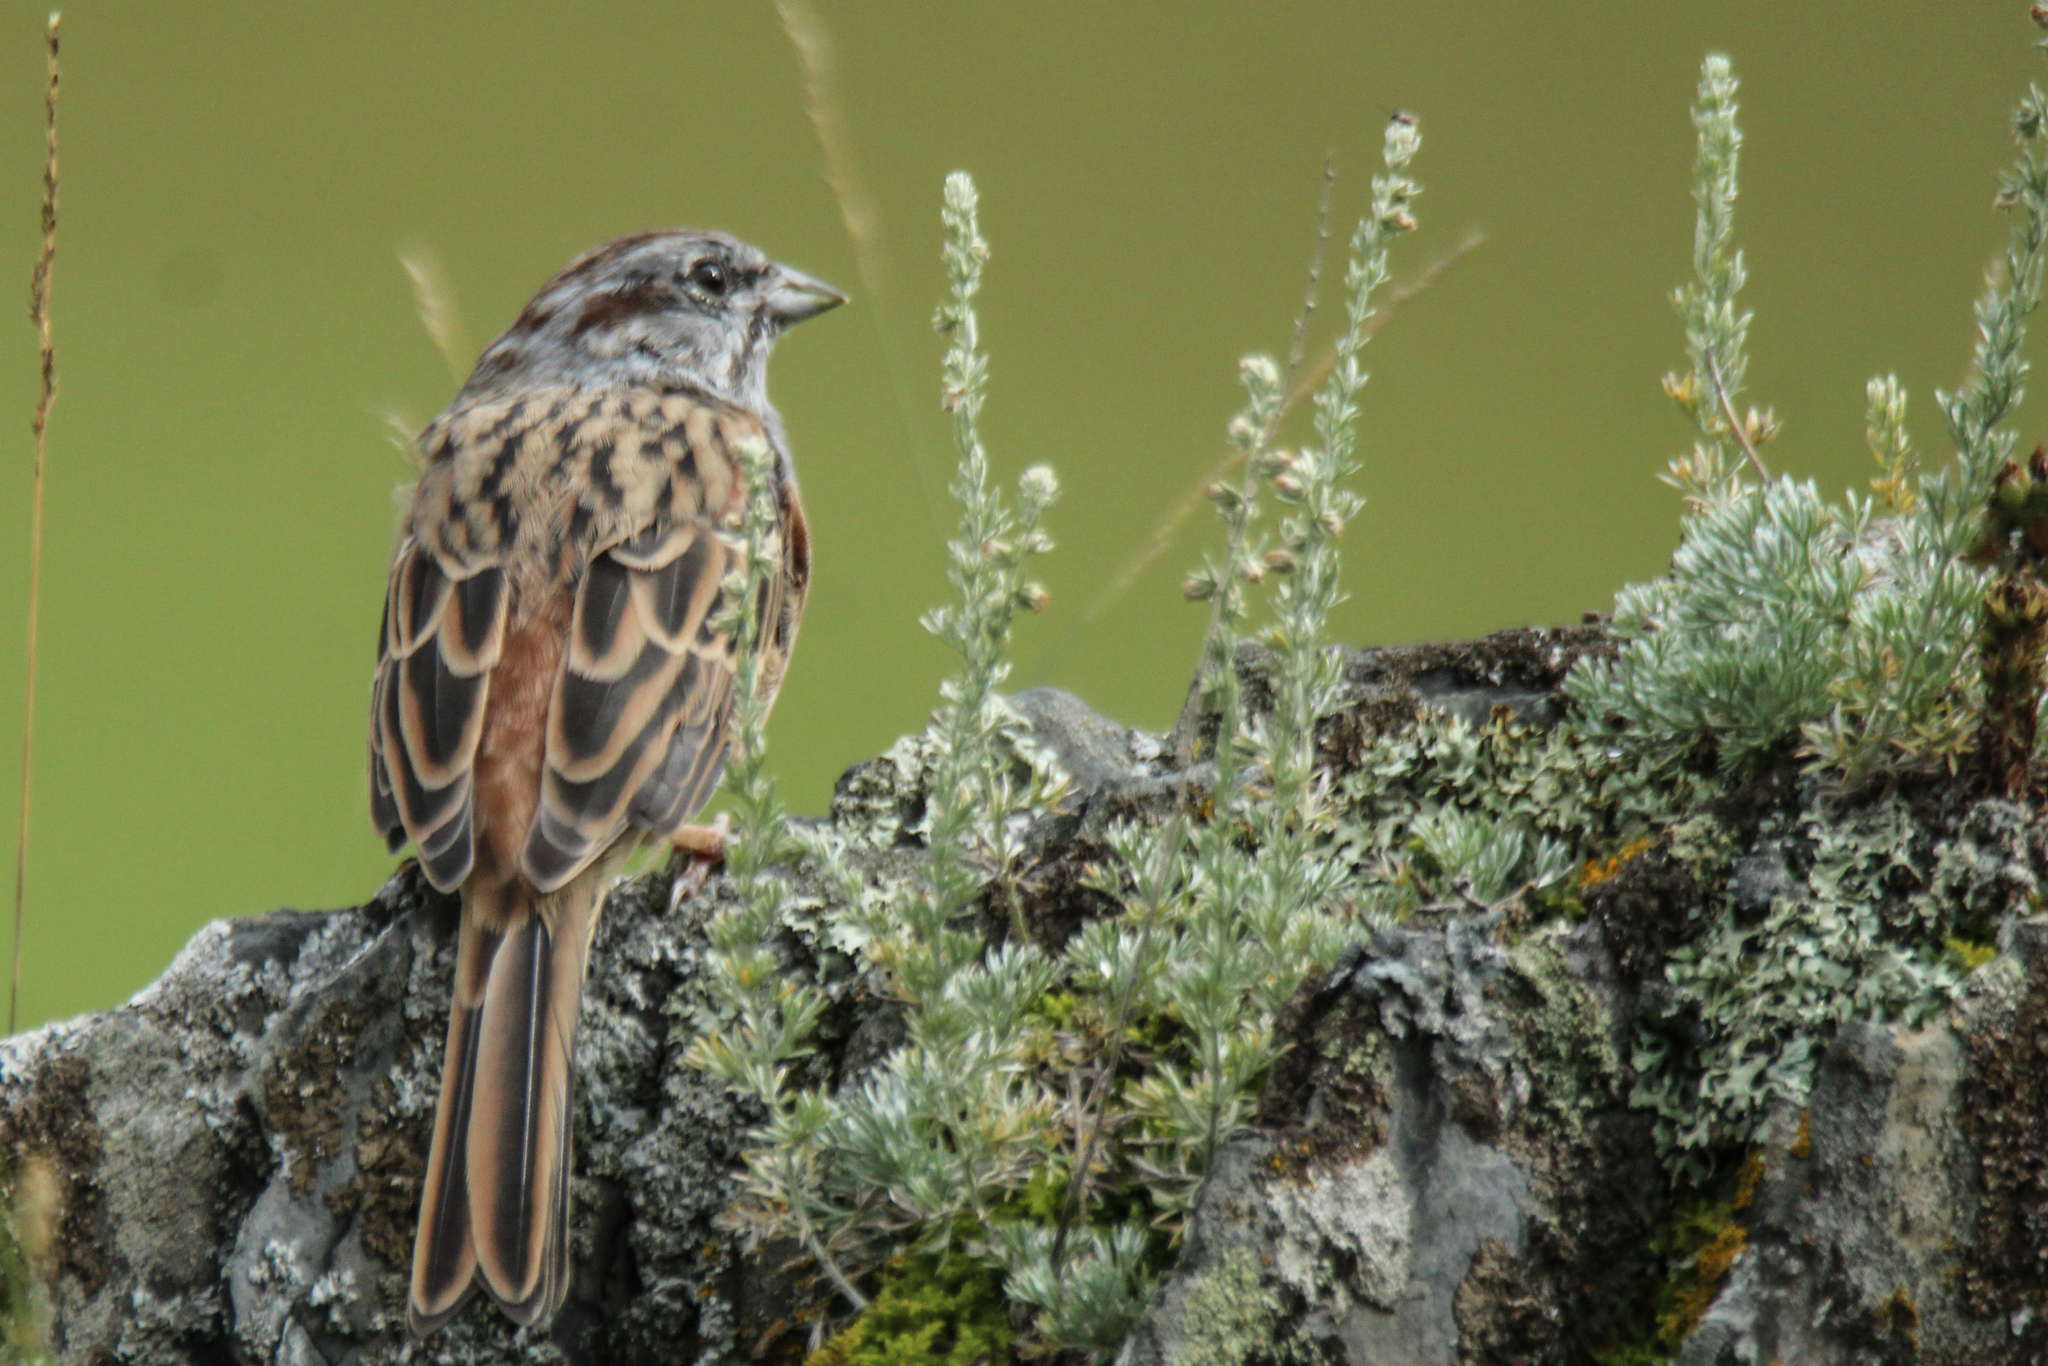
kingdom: Animalia
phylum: Chordata
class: Aves
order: Passeriformes
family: Emberizidae
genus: Emberiza
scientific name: Emberiza godlewskii
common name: Godlewski's bunting
